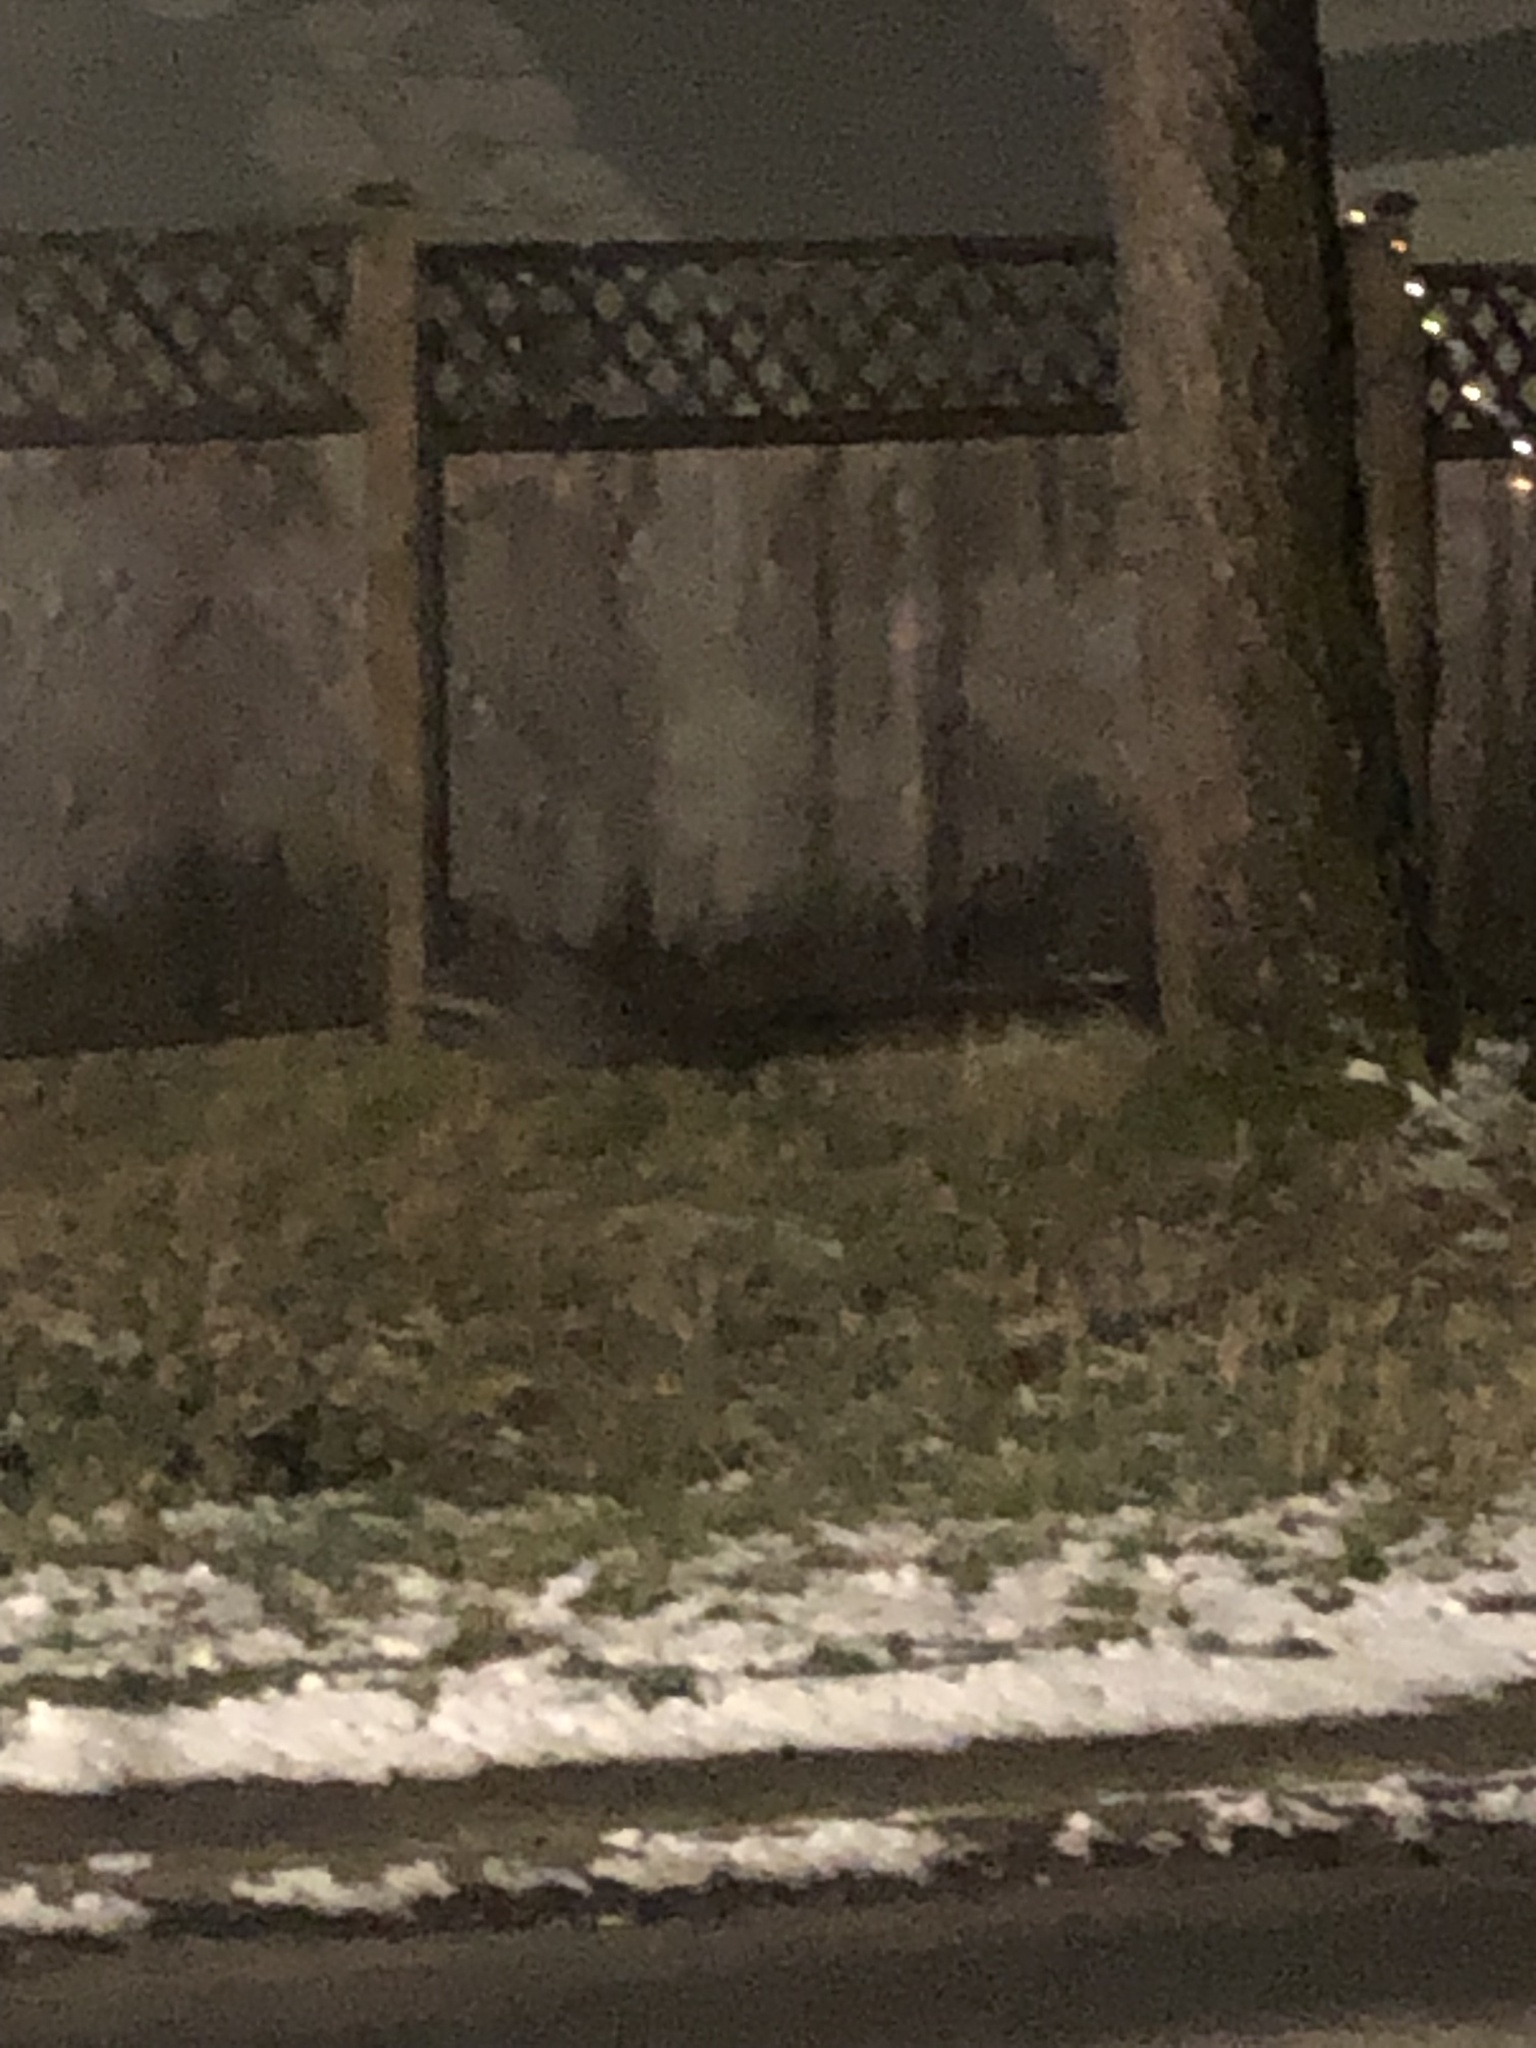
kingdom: Animalia
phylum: Chordata
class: Mammalia
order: Carnivora
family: Procyonidae
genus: Procyon
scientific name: Procyon lotor
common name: Raccoon
